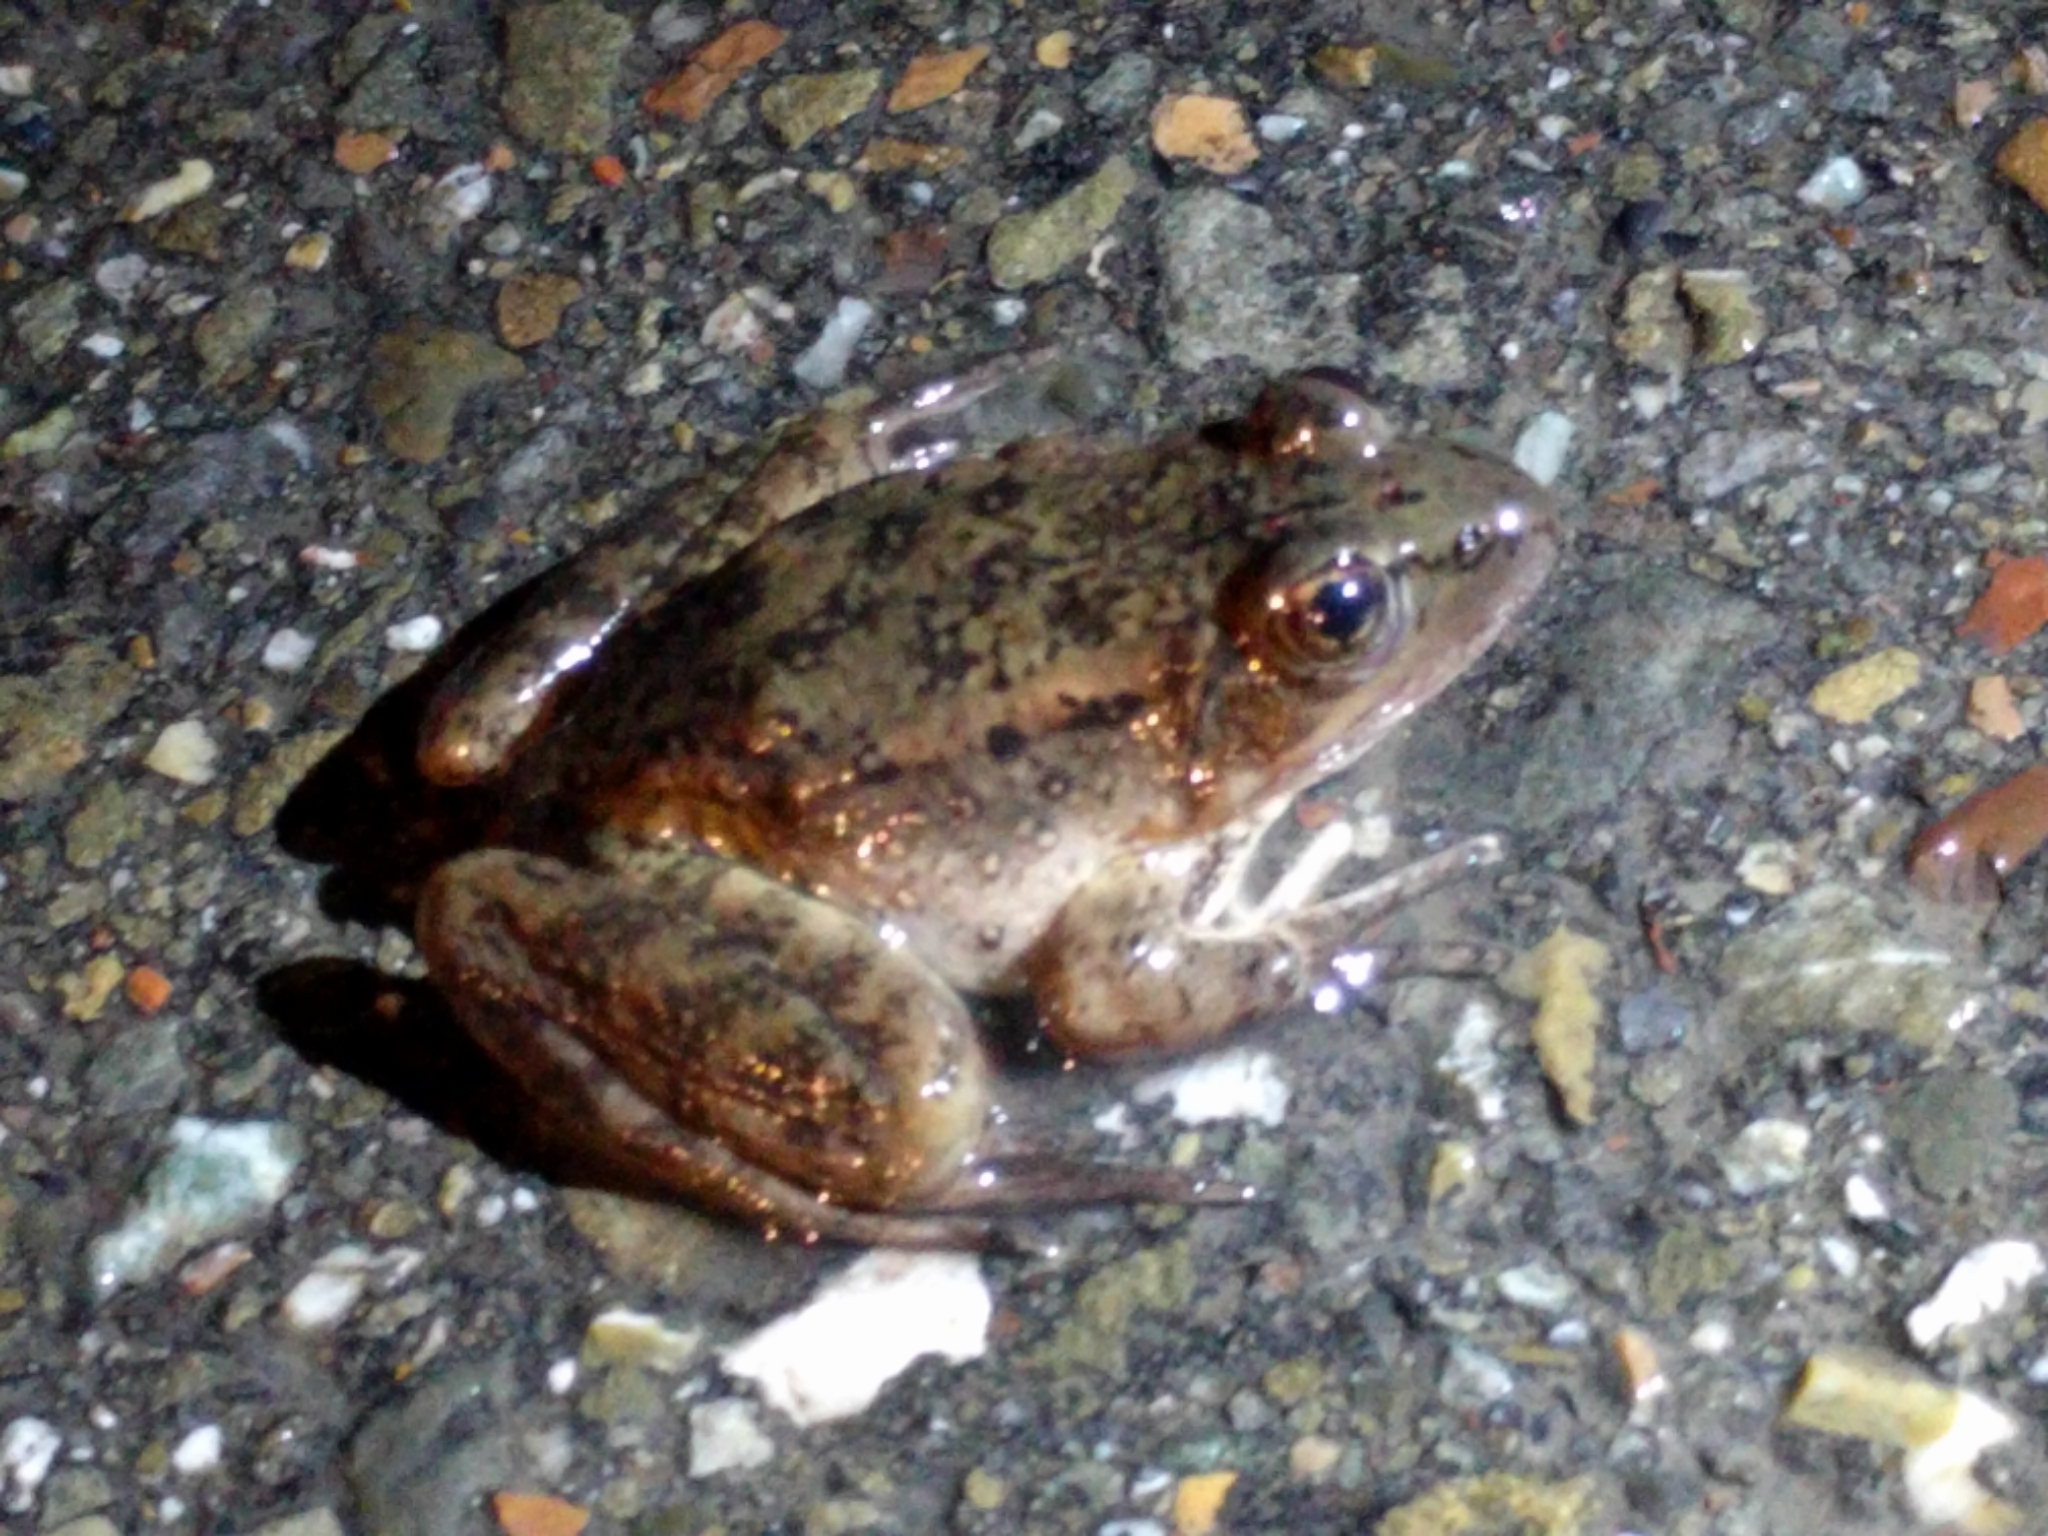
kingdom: Animalia
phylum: Chordata
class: Amphibia
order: Anura
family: Ranidae
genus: Rana
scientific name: Rana draytonii
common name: California red-legged frog
